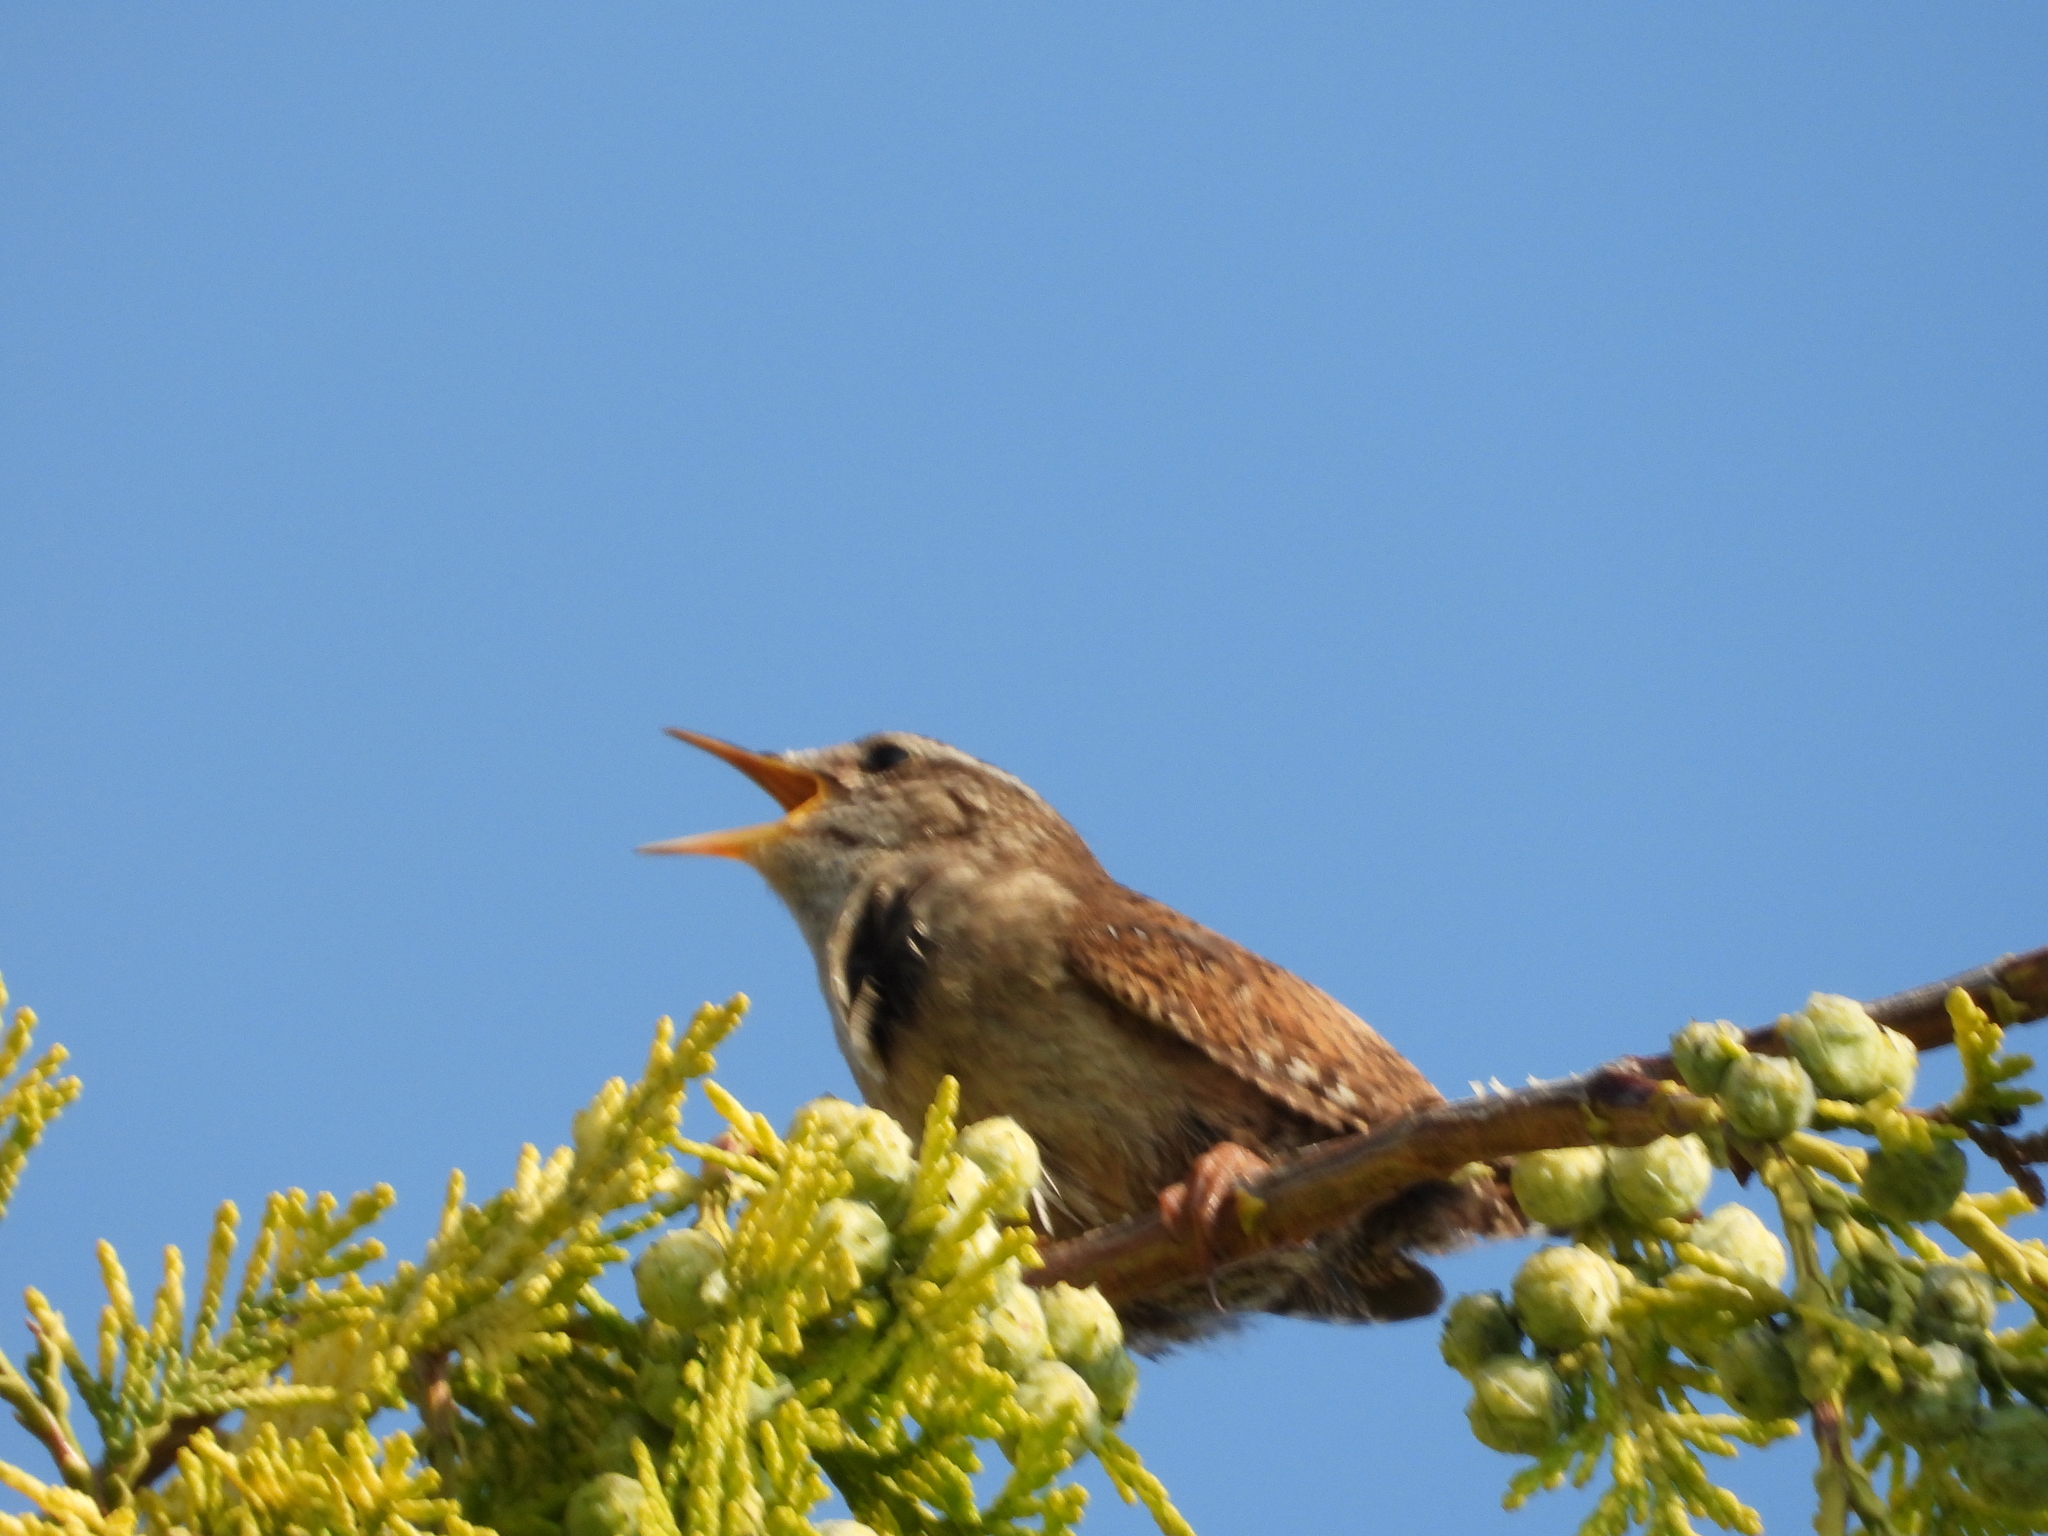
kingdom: Animalia
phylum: Chordata
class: Aves
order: Passeriformes
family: Troglodytidae
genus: Troglodytes
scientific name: Troglodytes troglodytes
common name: Eurasian wren
